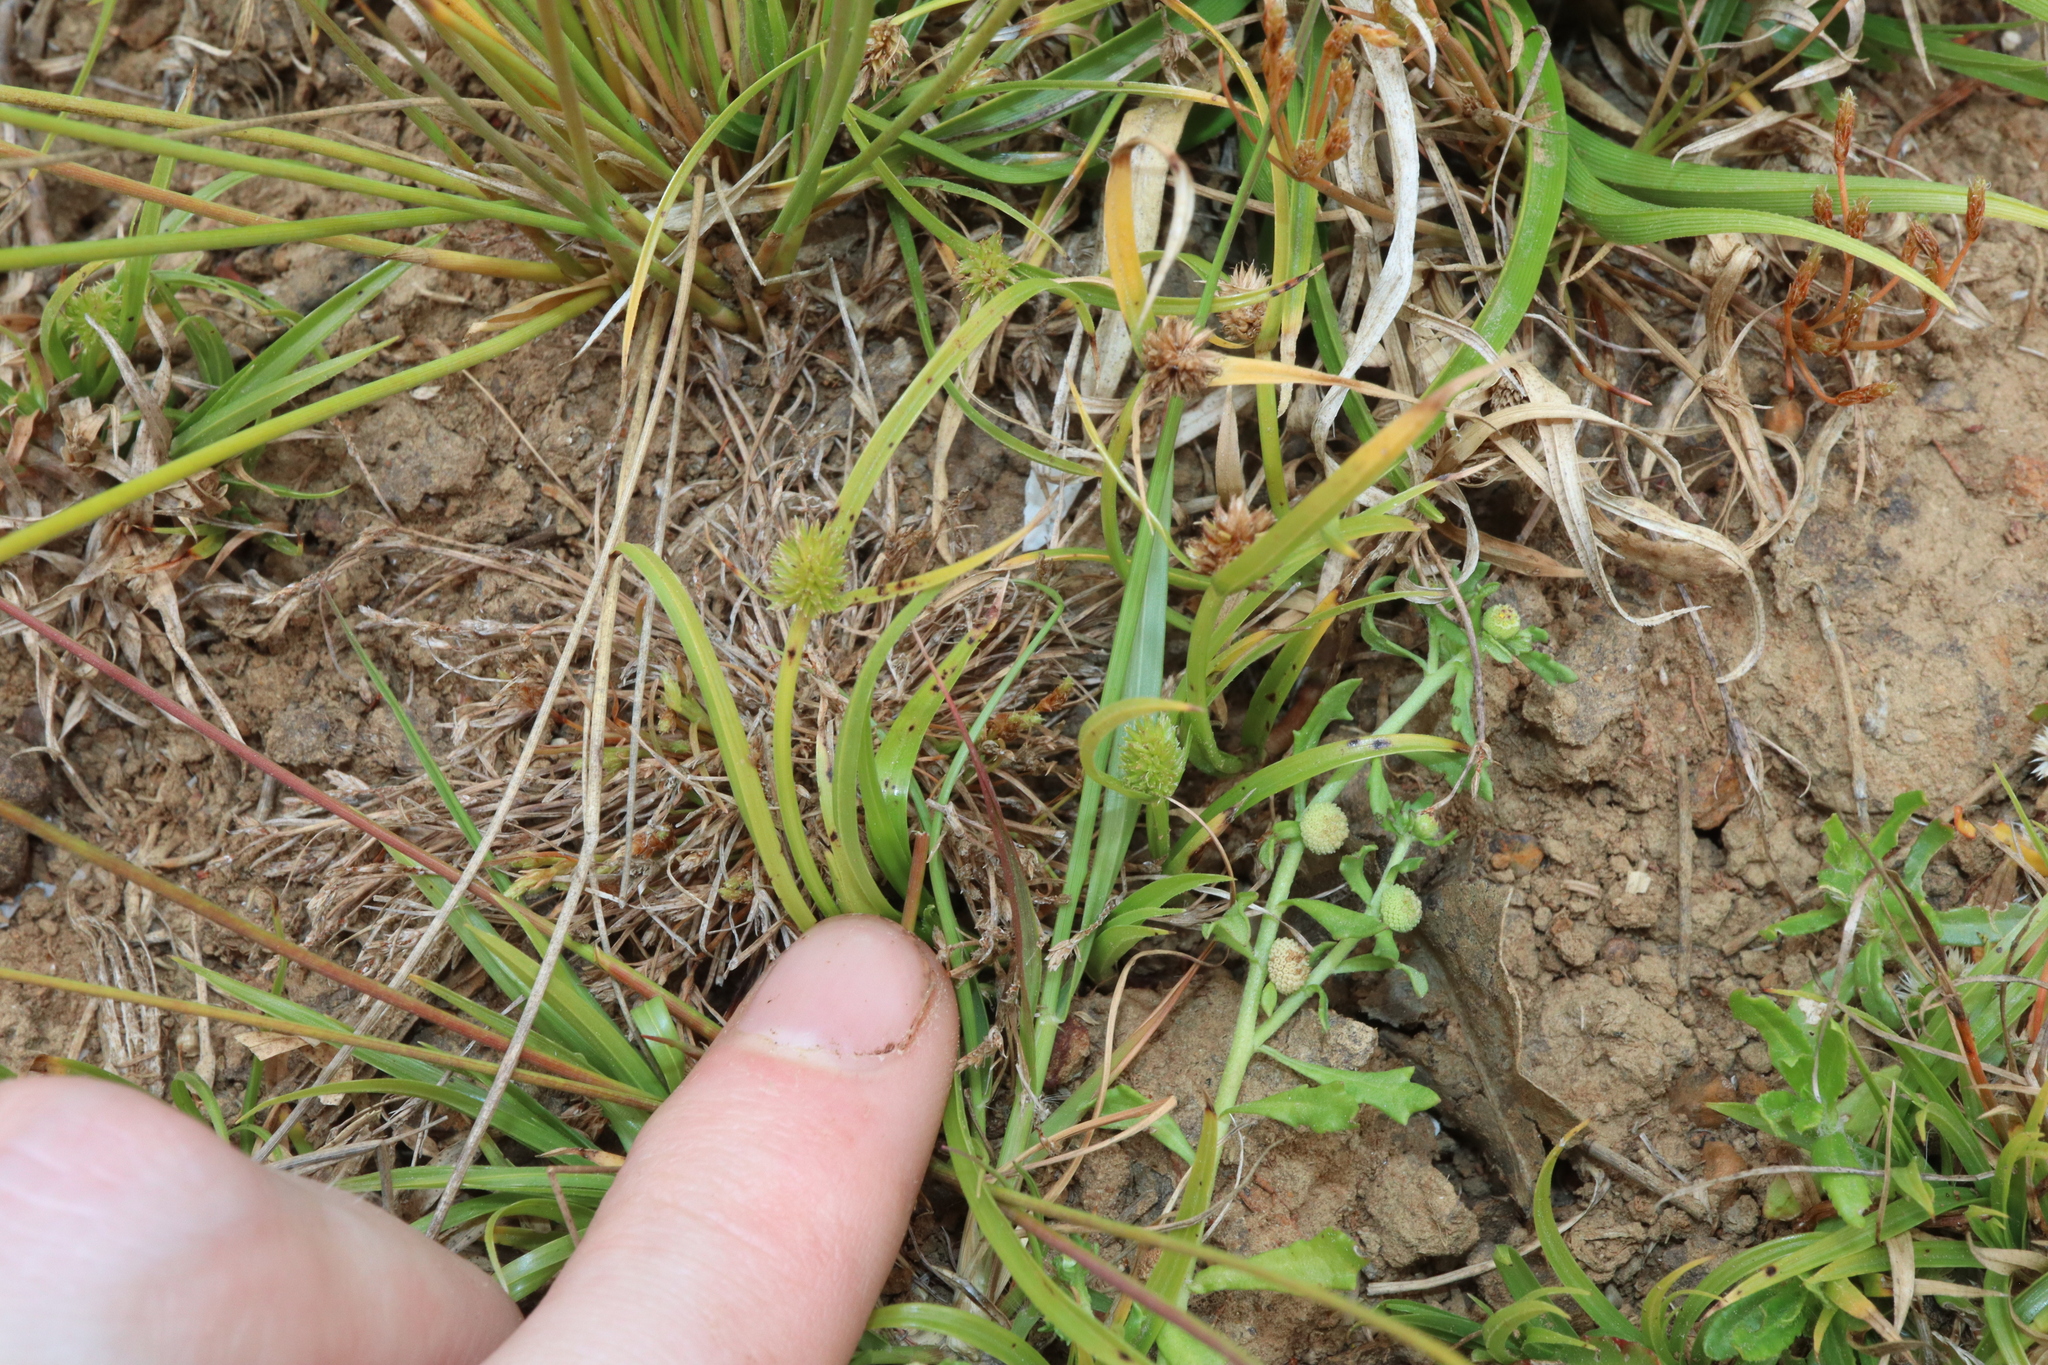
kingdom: Plantae
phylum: Tracheophyta
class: Liliopsida
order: Poales
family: Cyperaceae
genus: Cyperus
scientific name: Cyperus brevifolius
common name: Globe kyllinga
